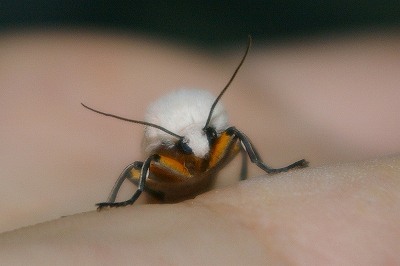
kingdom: Animalia
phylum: Arthropoda
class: Insecta
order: Lepidoptera
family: Erebidae
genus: Creatonotos
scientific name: Creatonotos transiens
